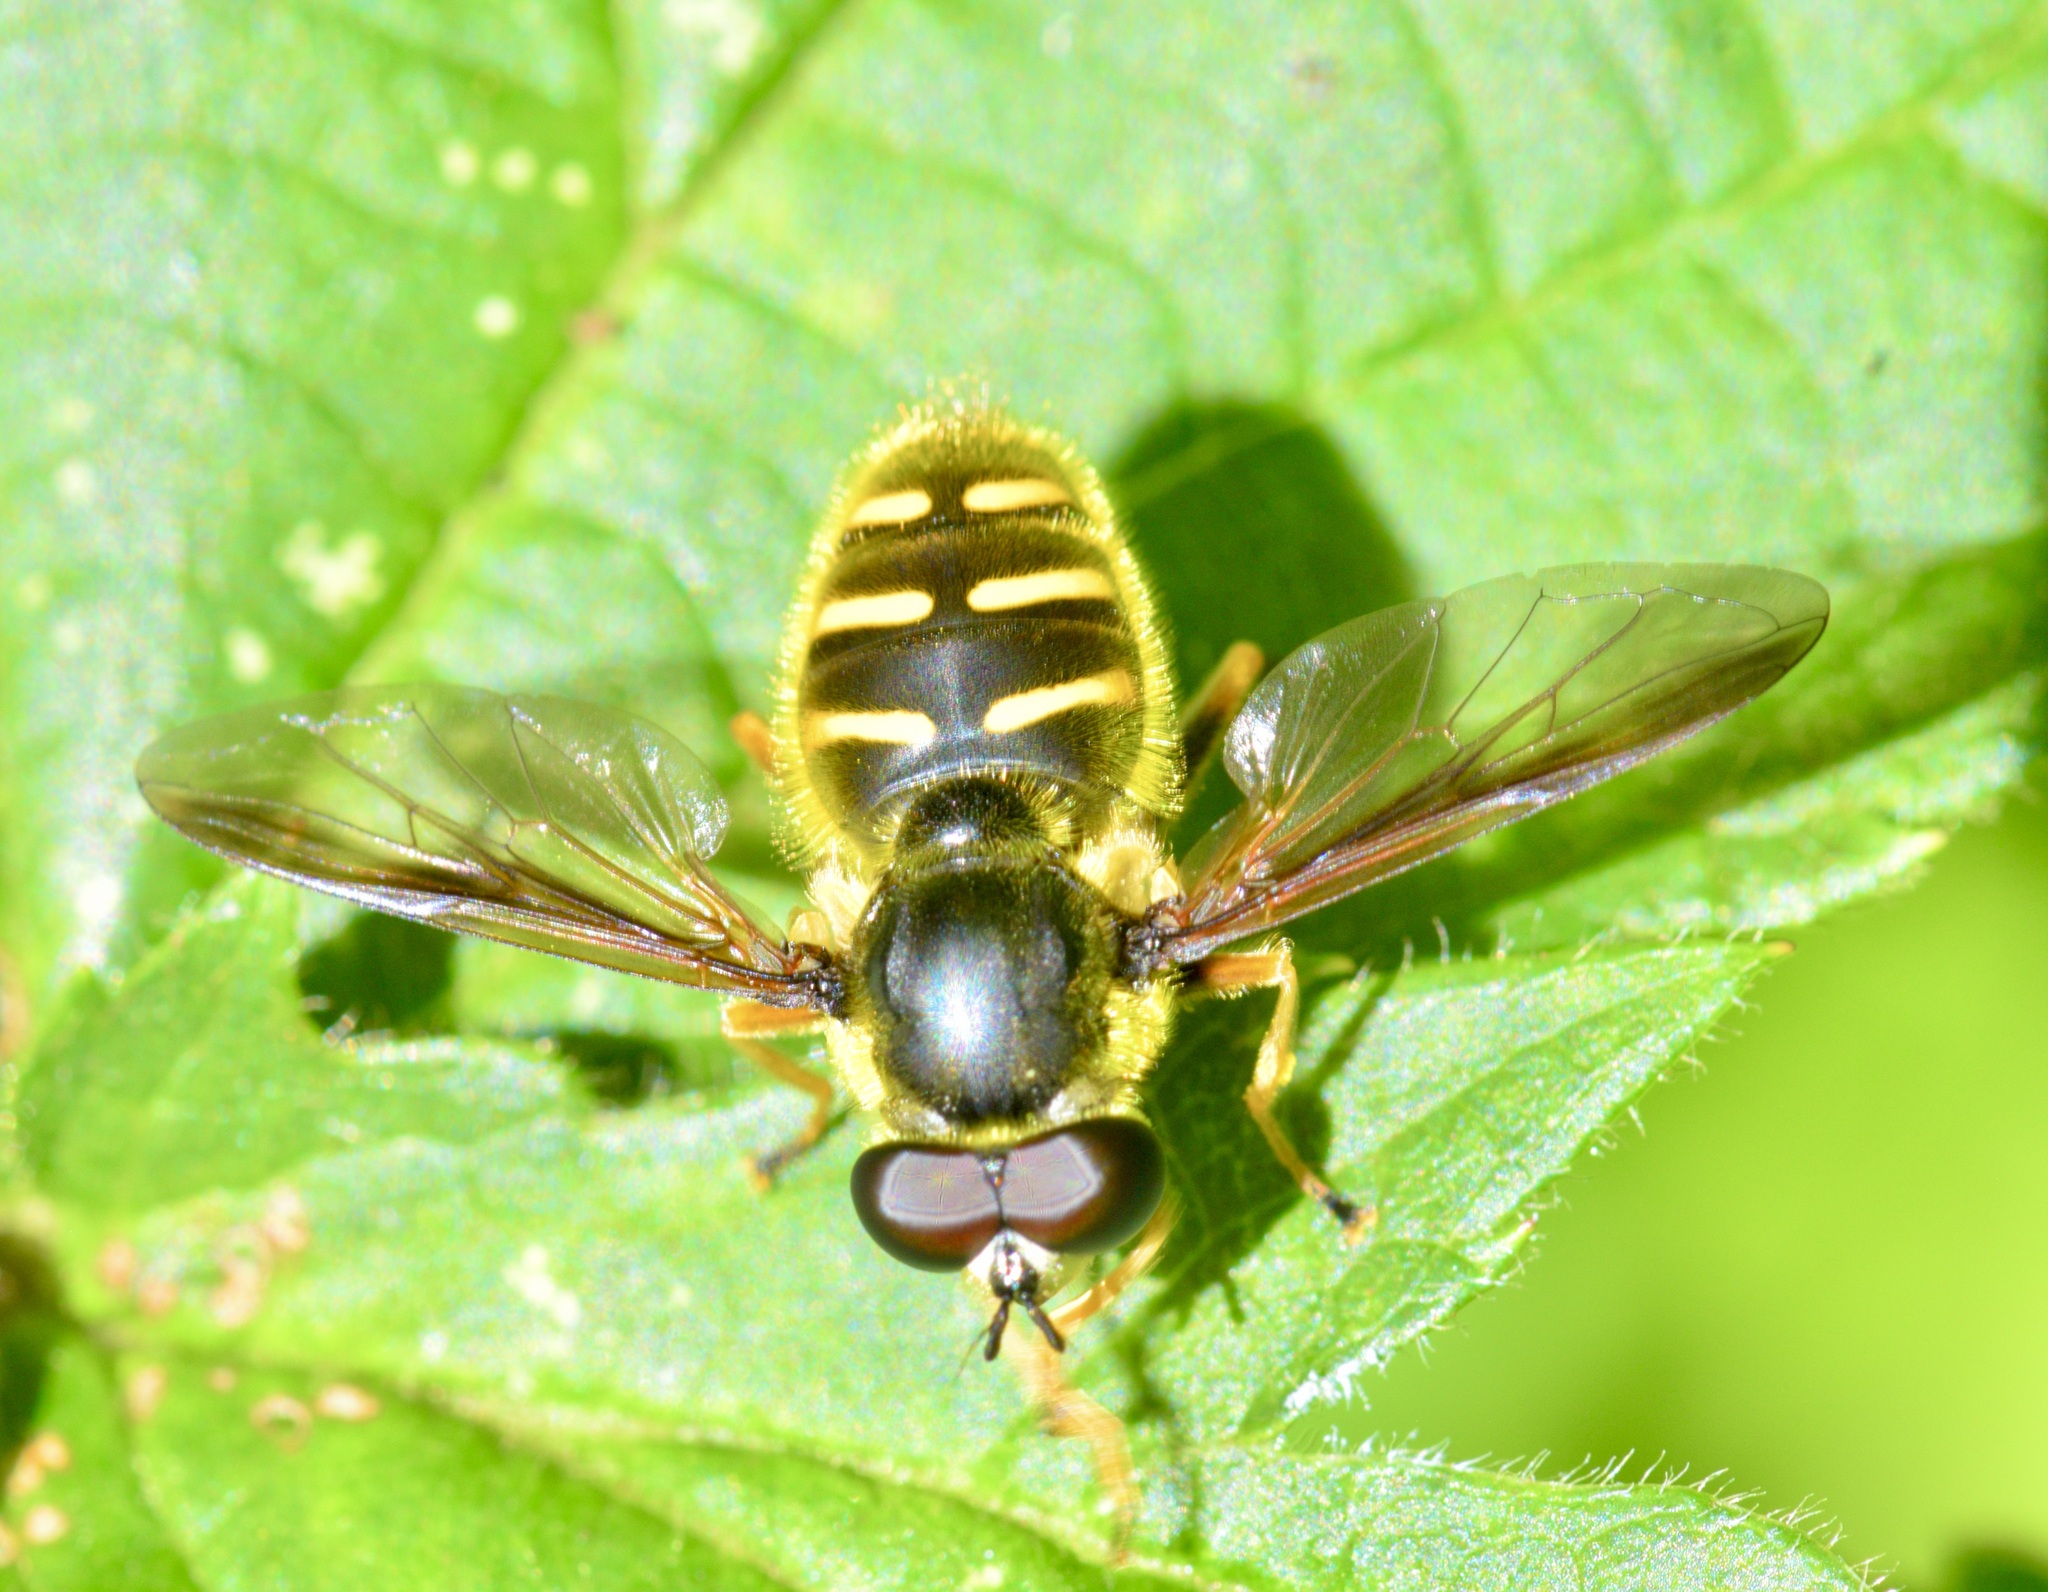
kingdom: Animalia
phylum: Arthropoda
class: Insecta
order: Diptera
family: Syrphidae
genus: Sericomyia
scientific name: Sericomyia chrysotoxoides
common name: Oblique-banded pond fly
